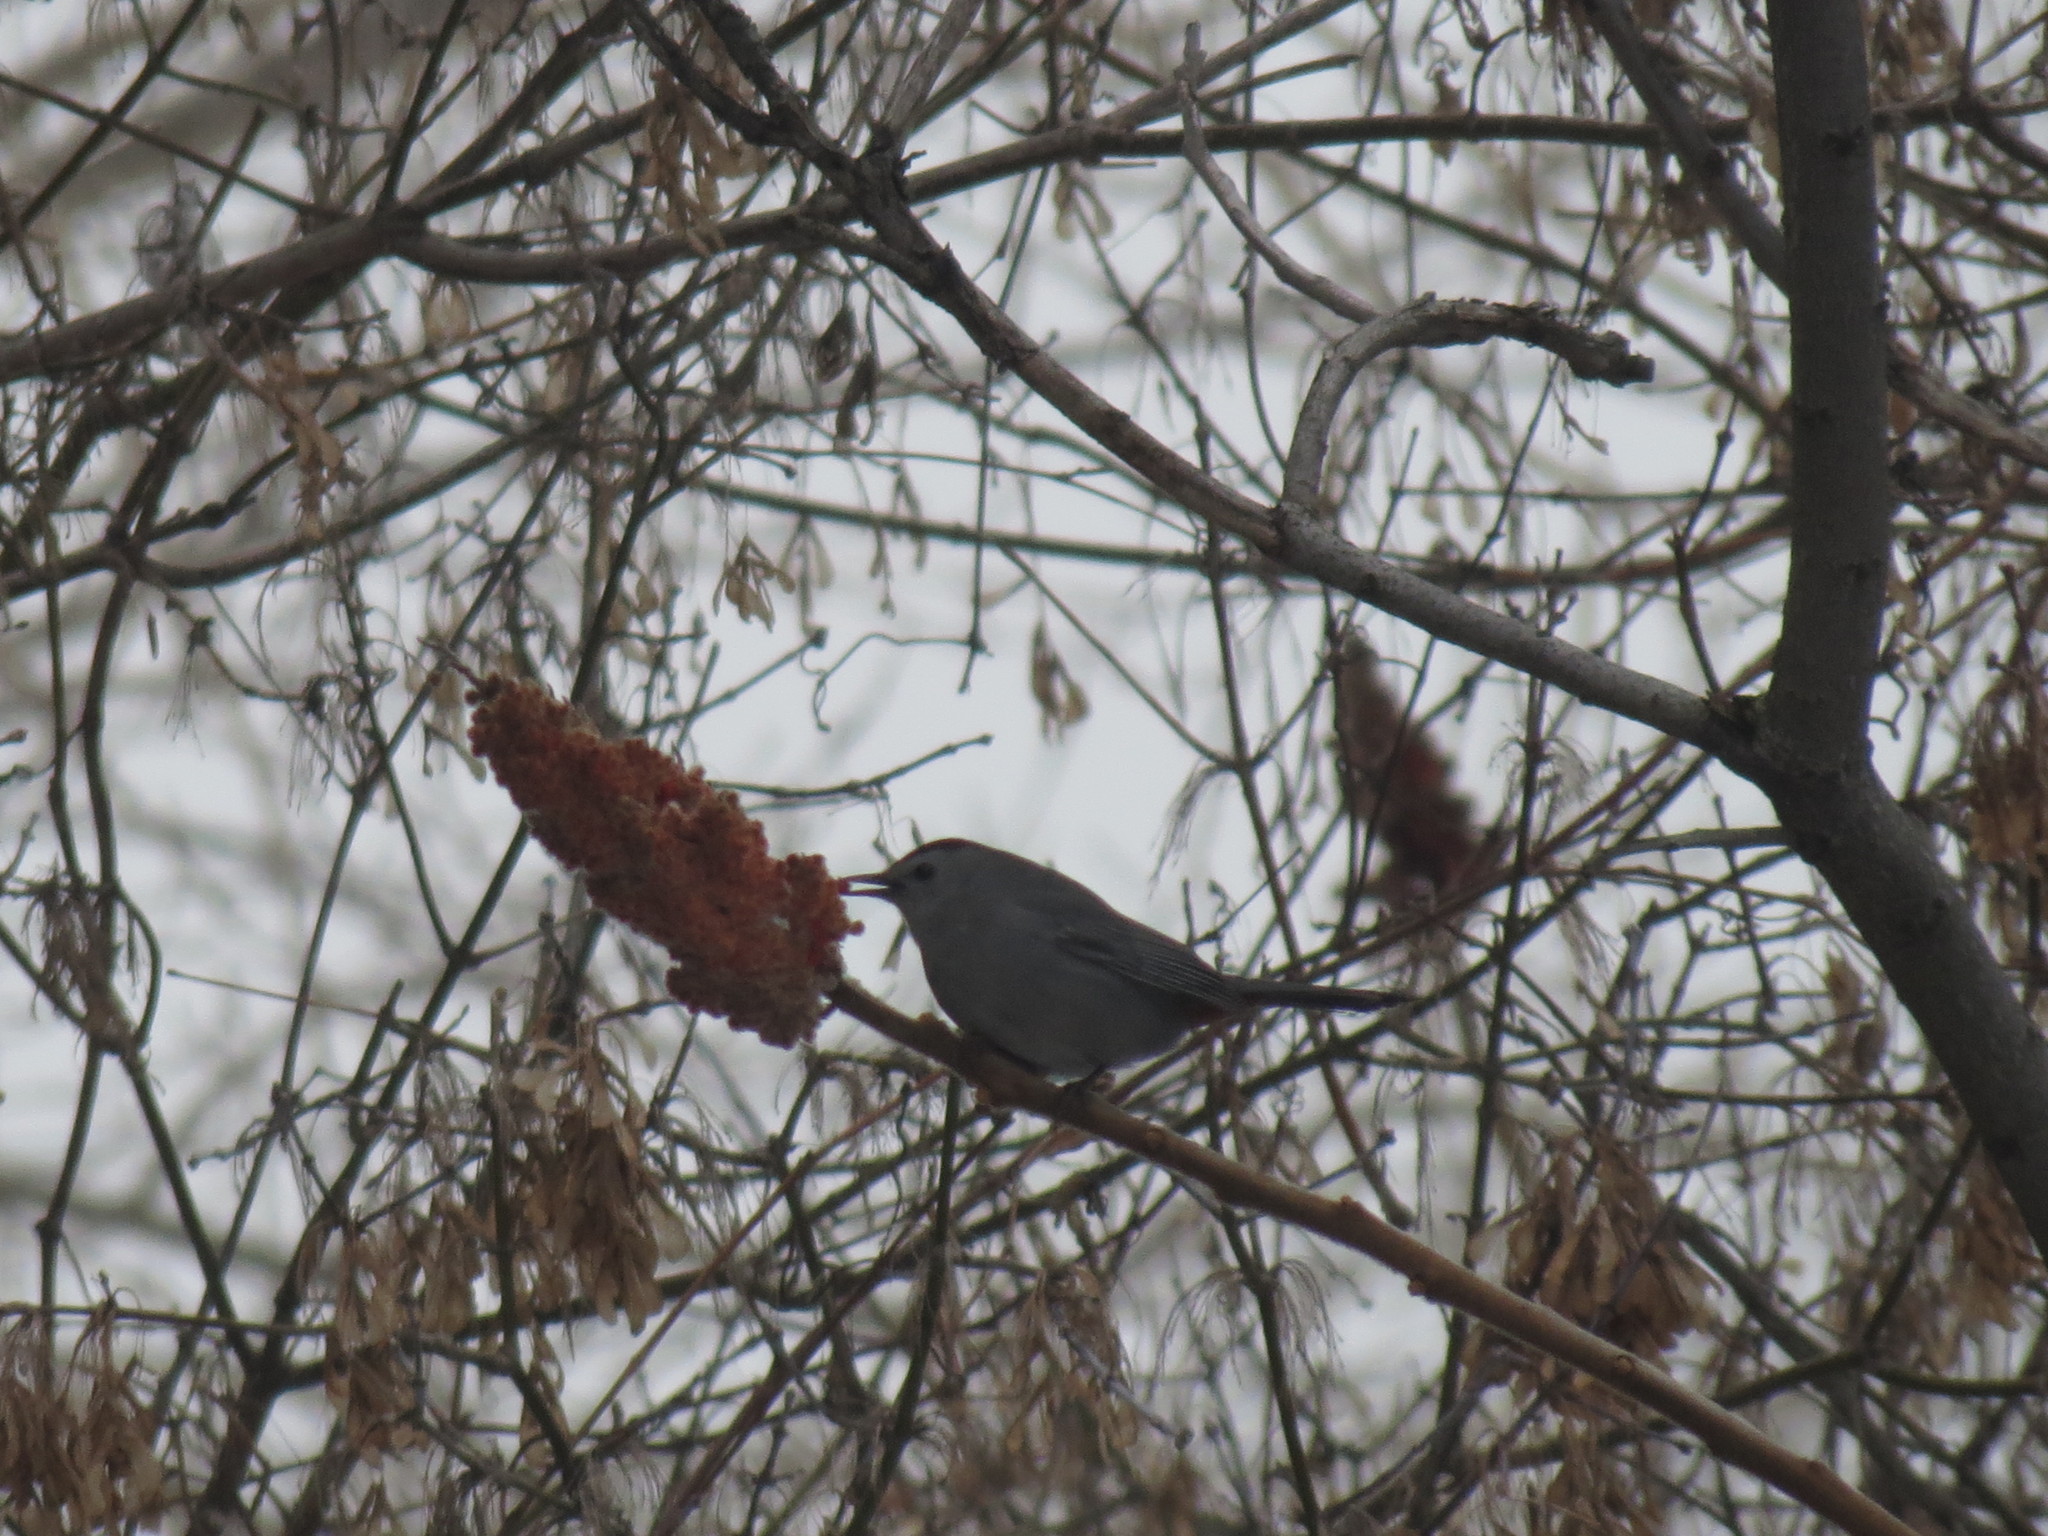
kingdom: Animalia
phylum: Chordata
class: Aves
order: Passeriformes
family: Mimidae
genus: Dumetella
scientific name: Dumetella carolinensis
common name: Gray catbird
